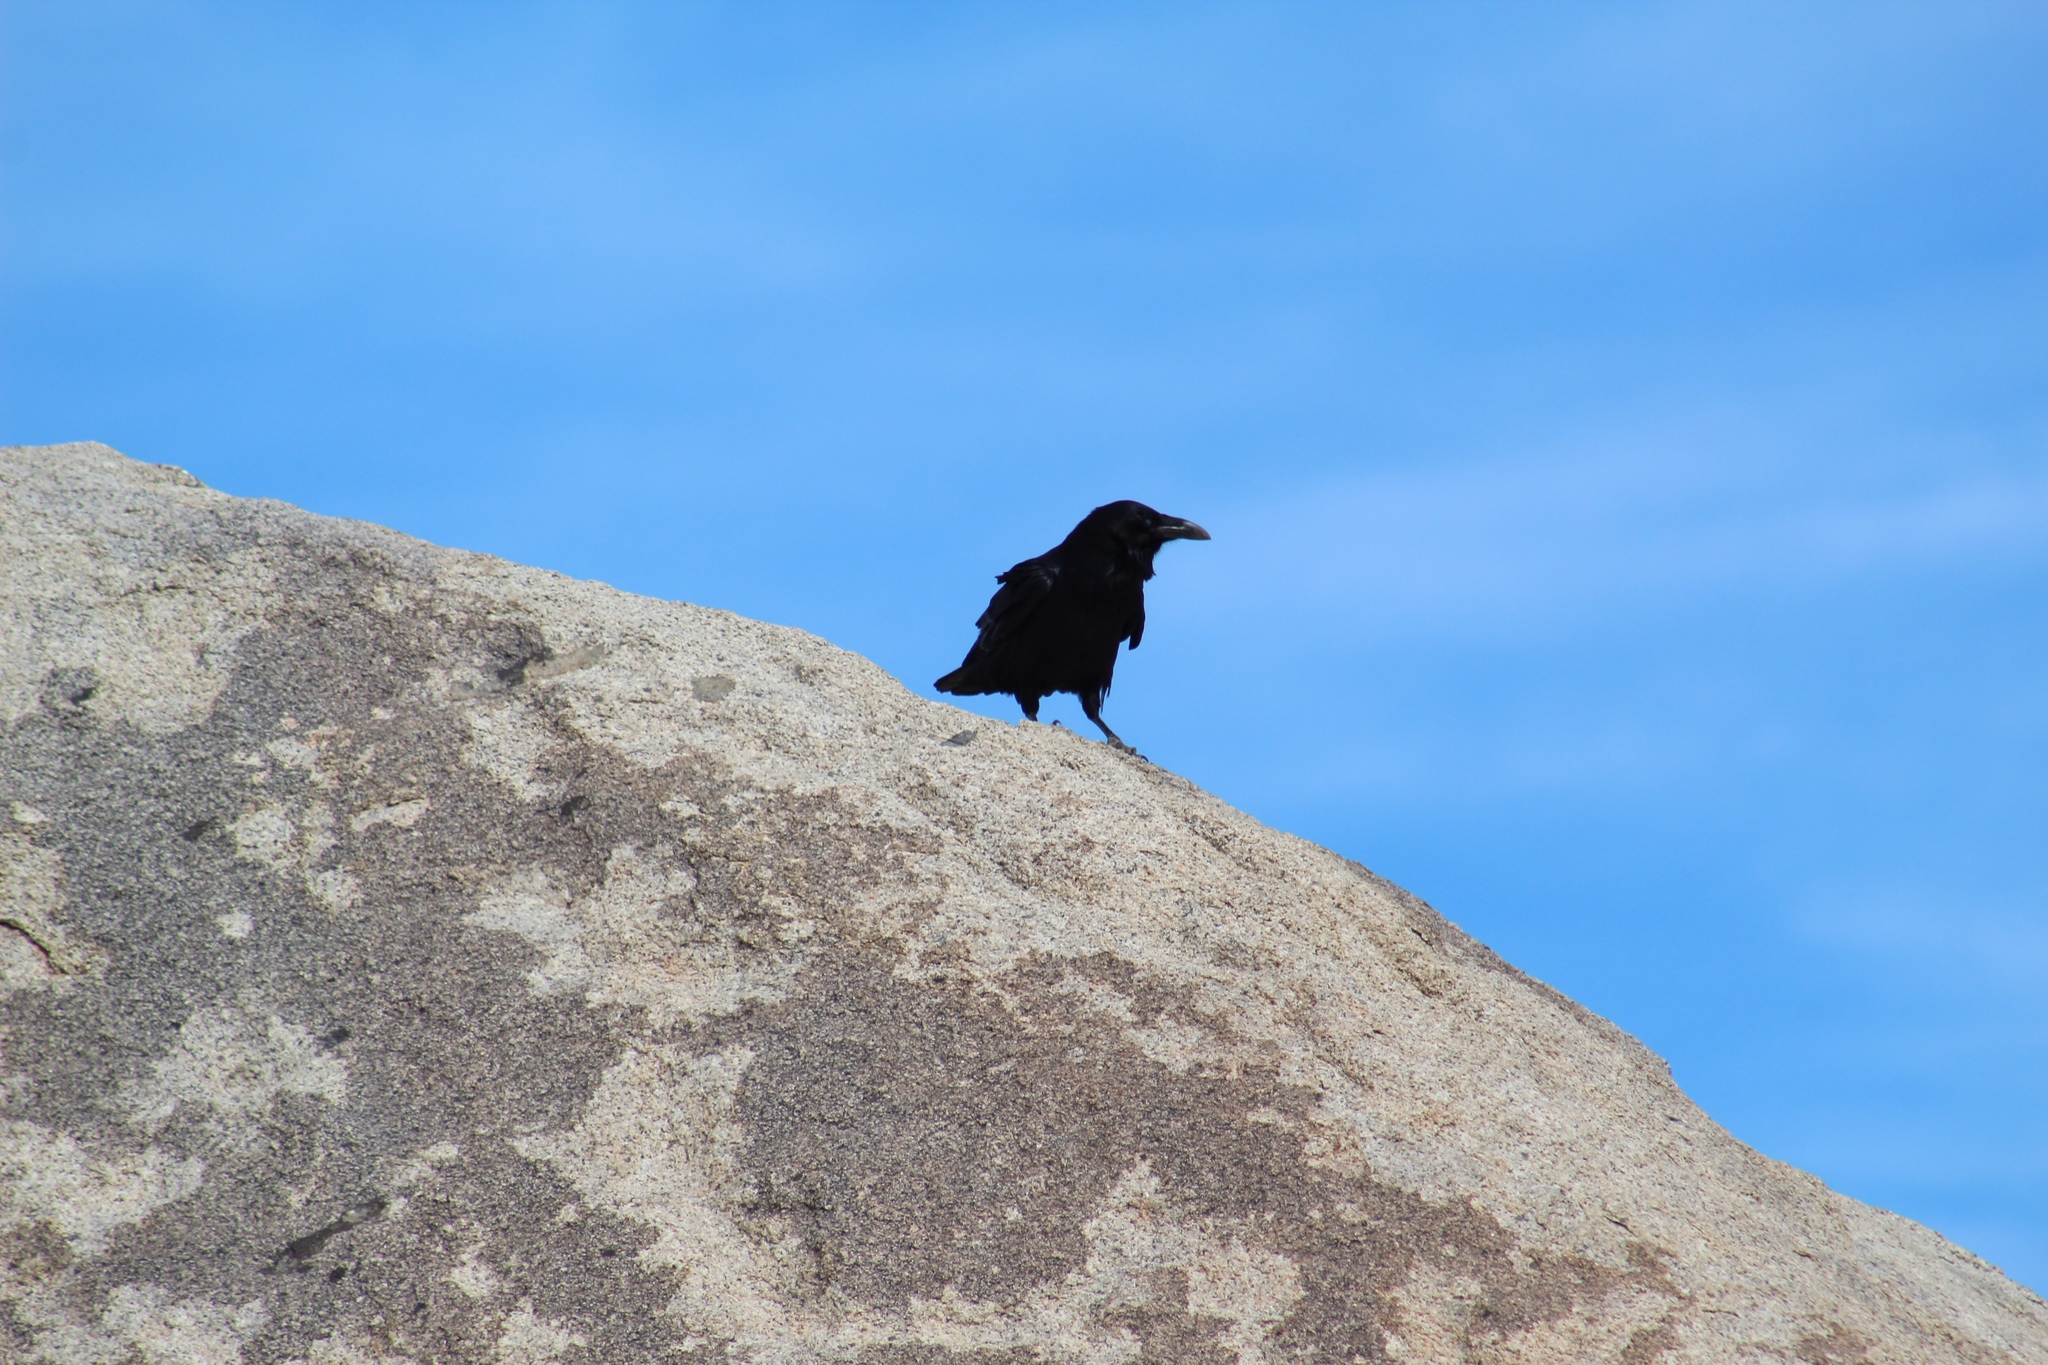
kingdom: Animalia
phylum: Chordata
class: Aves
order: Passeriformes
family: Corvidae
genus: Corvus
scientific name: Corvus corax
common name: Common raven
